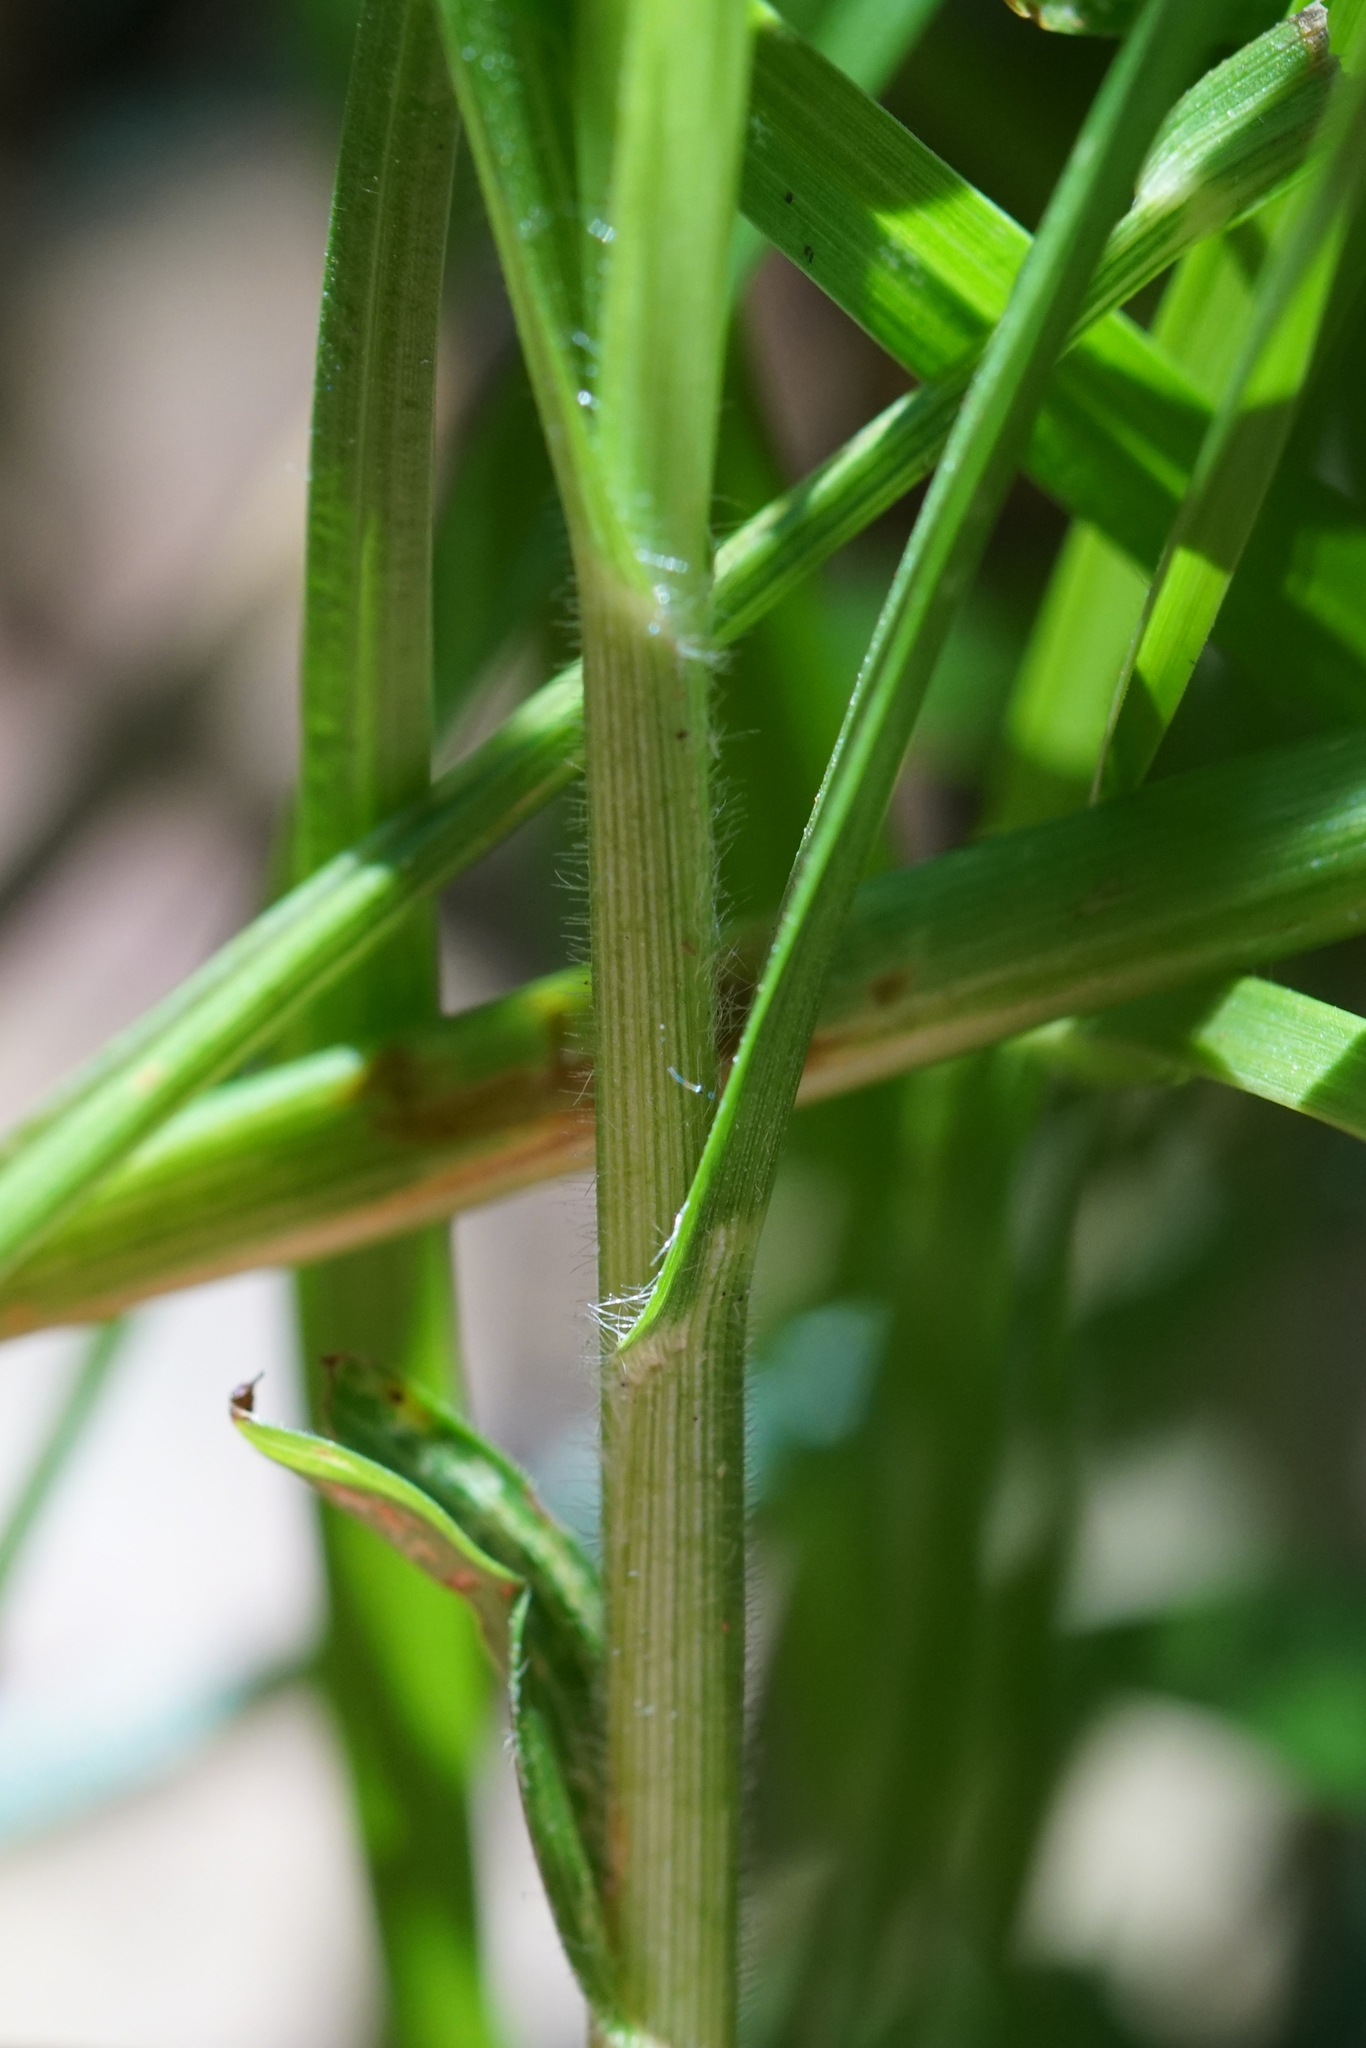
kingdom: Plantae
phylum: Tracheophyta
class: Liliopsida
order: Poales
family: Poaceae
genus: Hemarthria
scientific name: Hemarthria uncinata
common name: Matgrass
